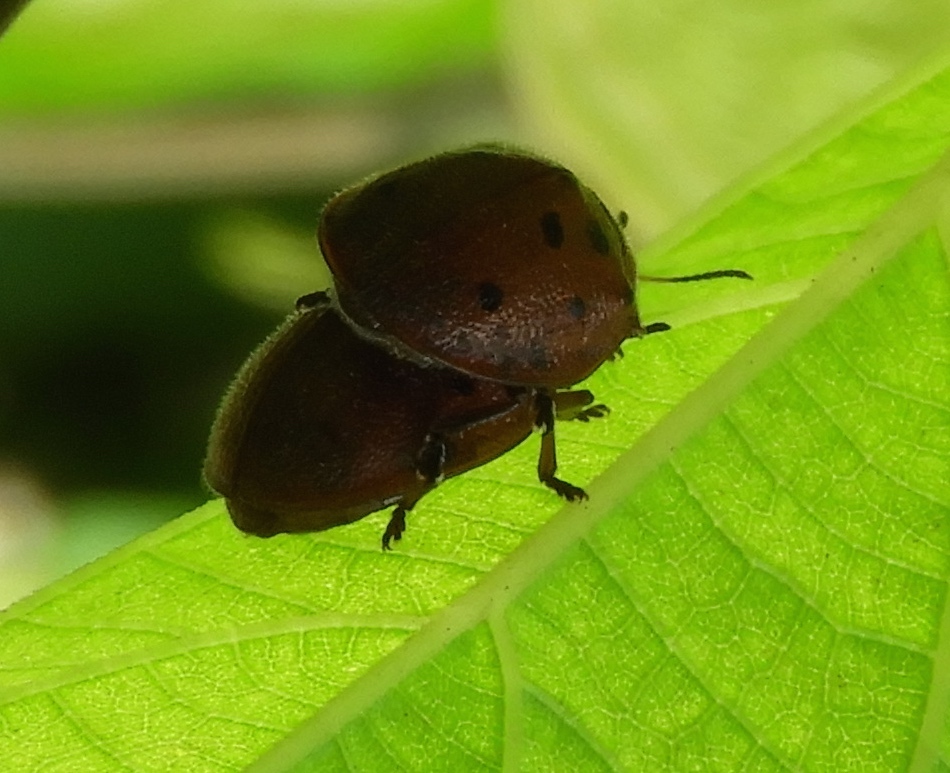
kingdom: Animalia
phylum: Arthropoda
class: Insecta
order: Coleoptera
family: Chrysomelidae
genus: Chelymorpha
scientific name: Chelymorpha
